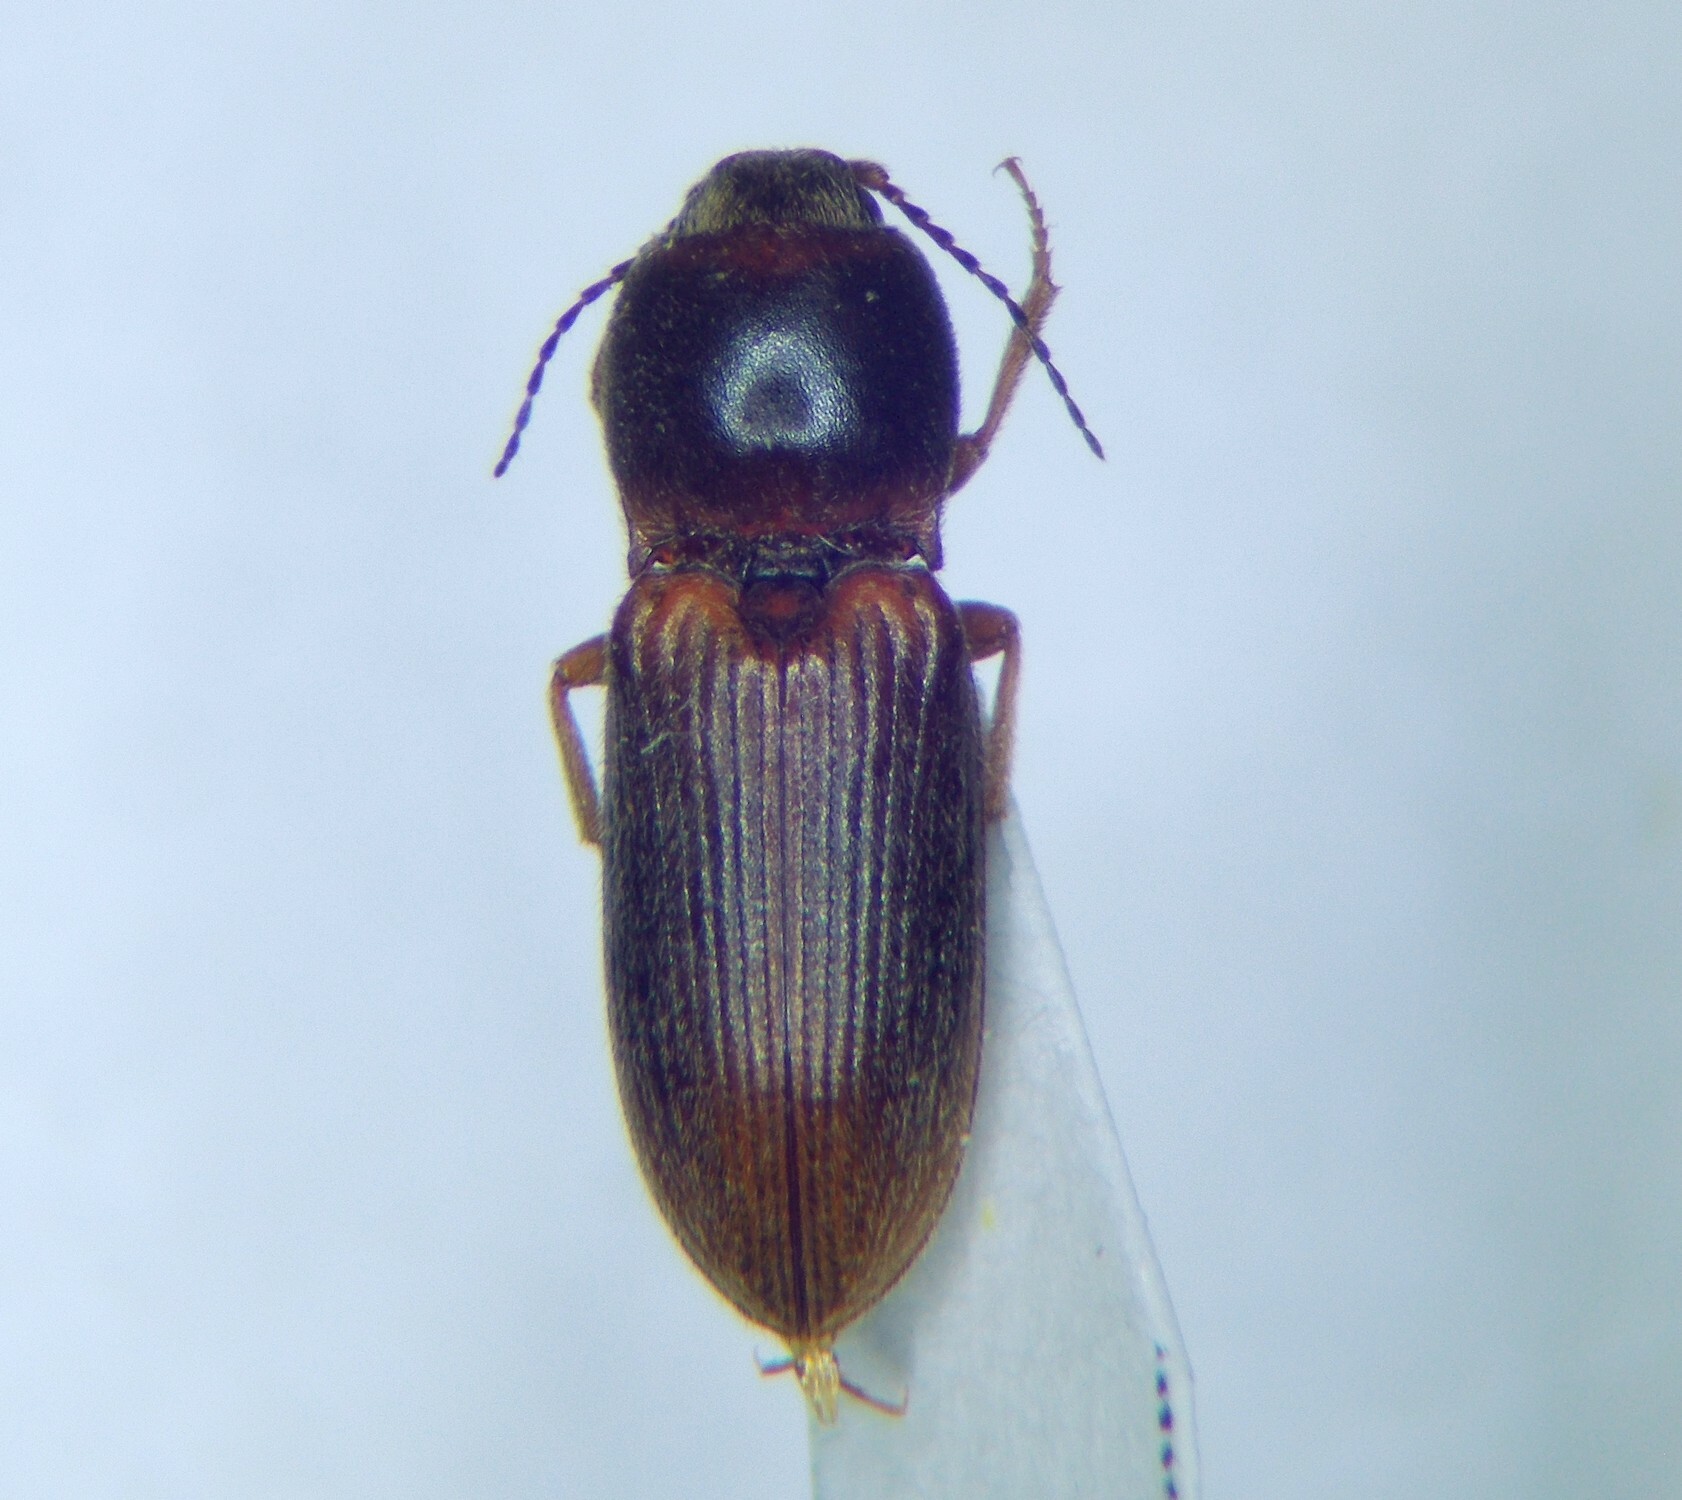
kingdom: Animalia
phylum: Arthropoda
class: Insecta
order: Coleoptera
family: Elateridae
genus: Cardiophorus
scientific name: Cardiophorus
